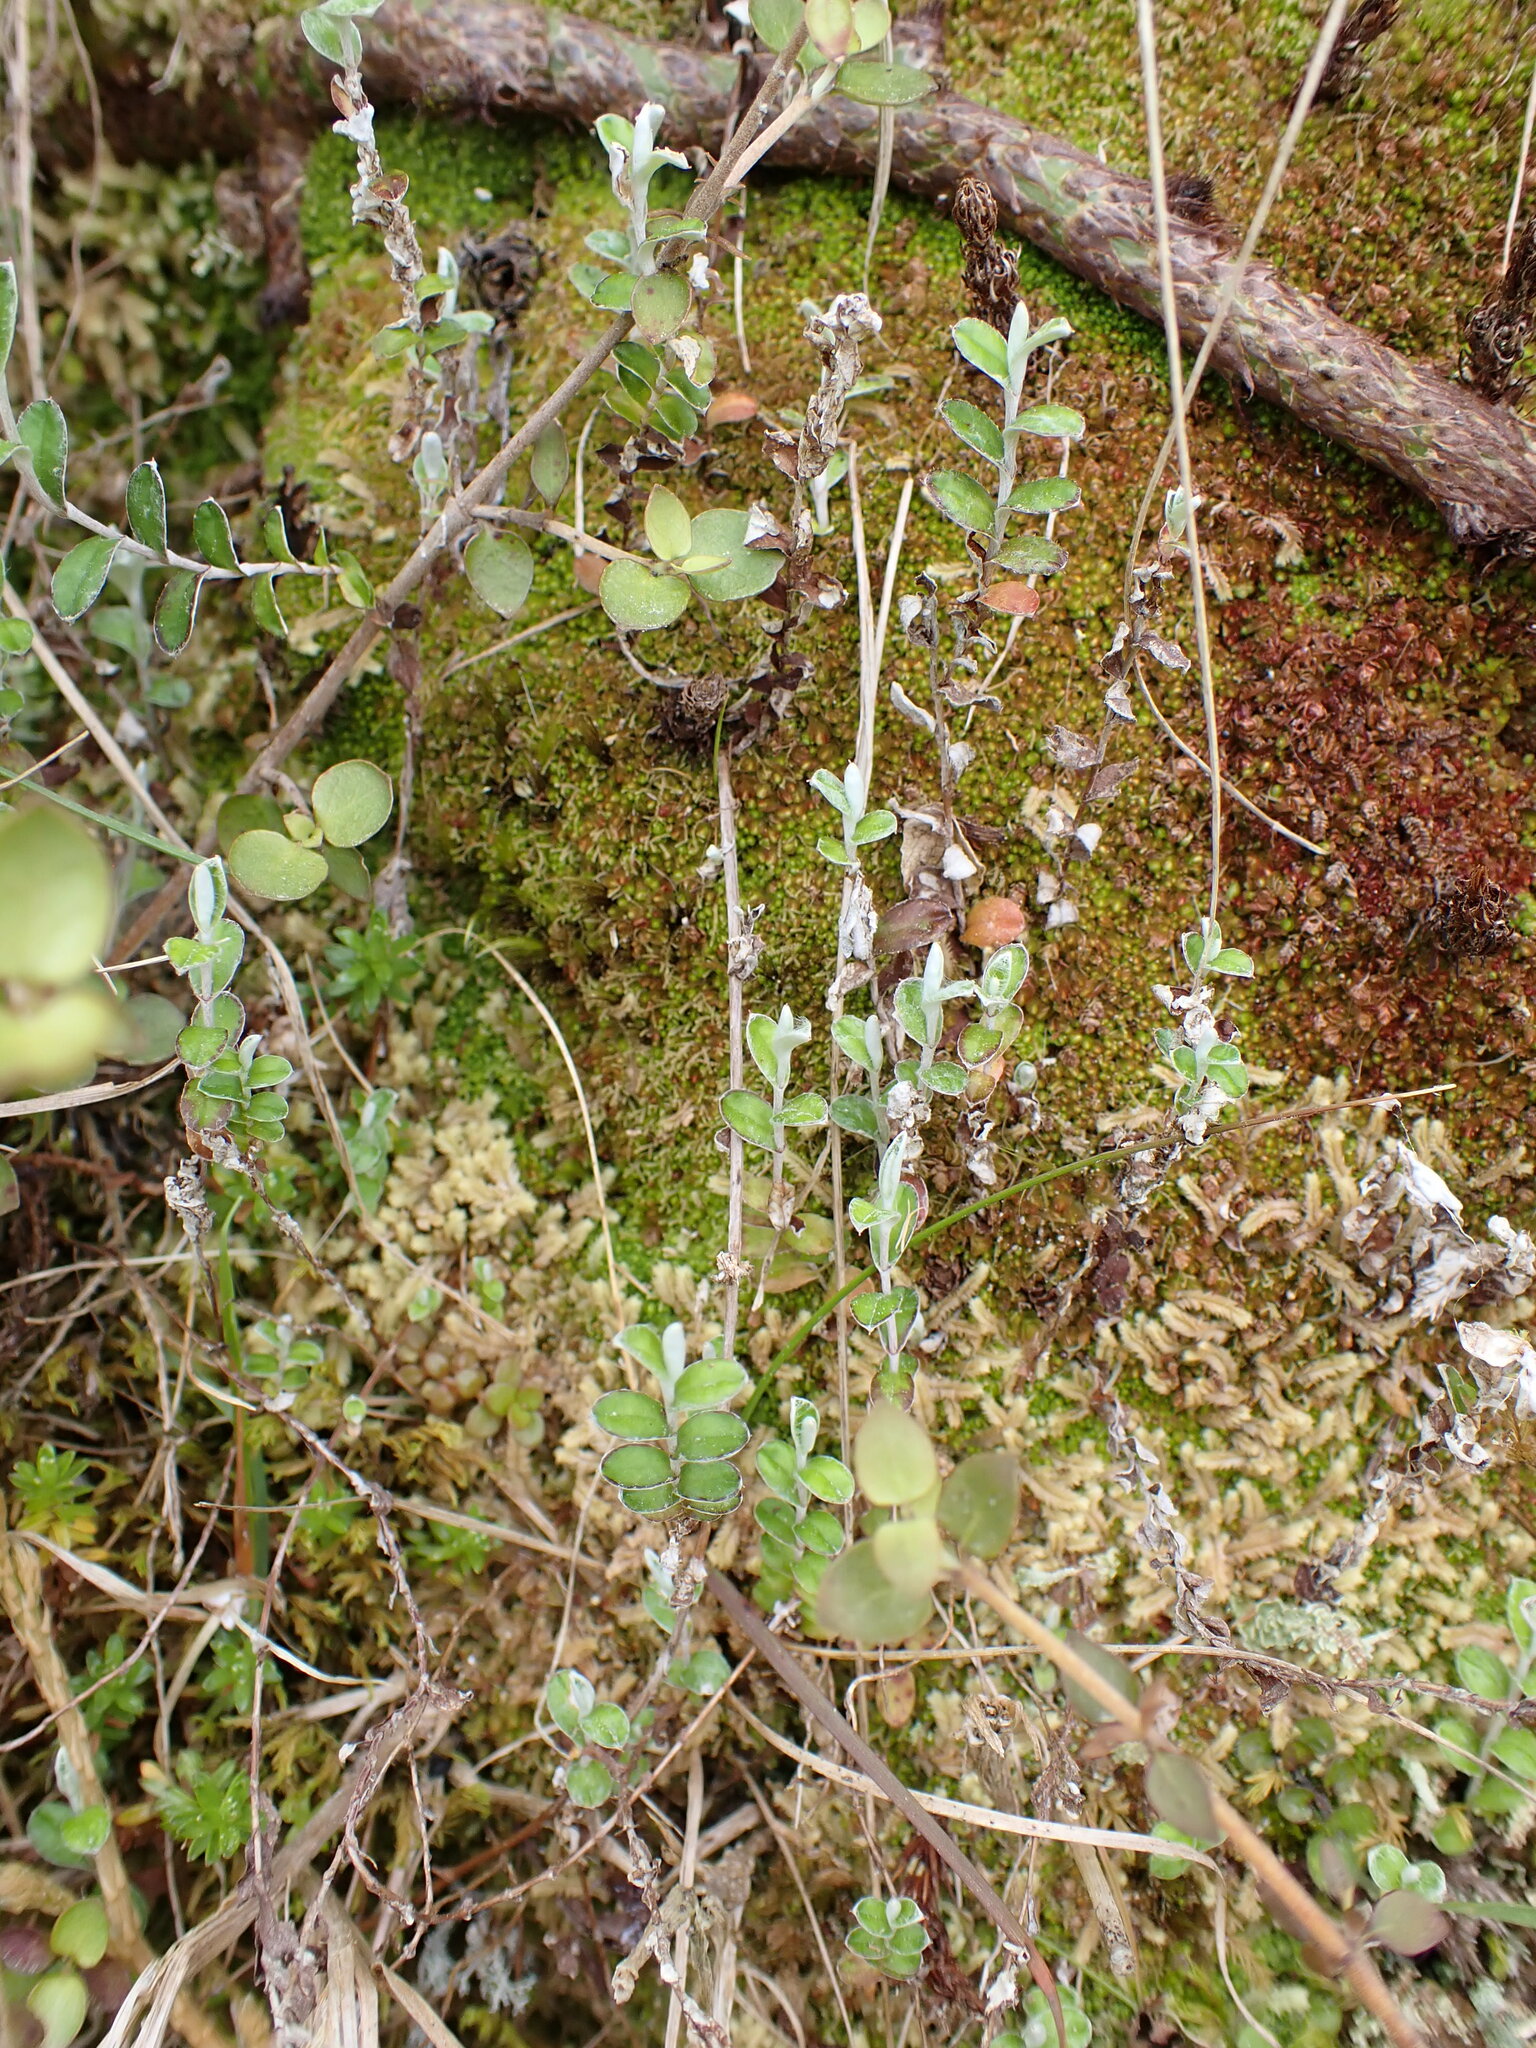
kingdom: Plantae
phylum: Tracheophyta
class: Magnoliopsida
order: Asterales
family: Asteraceae
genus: Helichrysum
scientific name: Helichrysum filicaule
